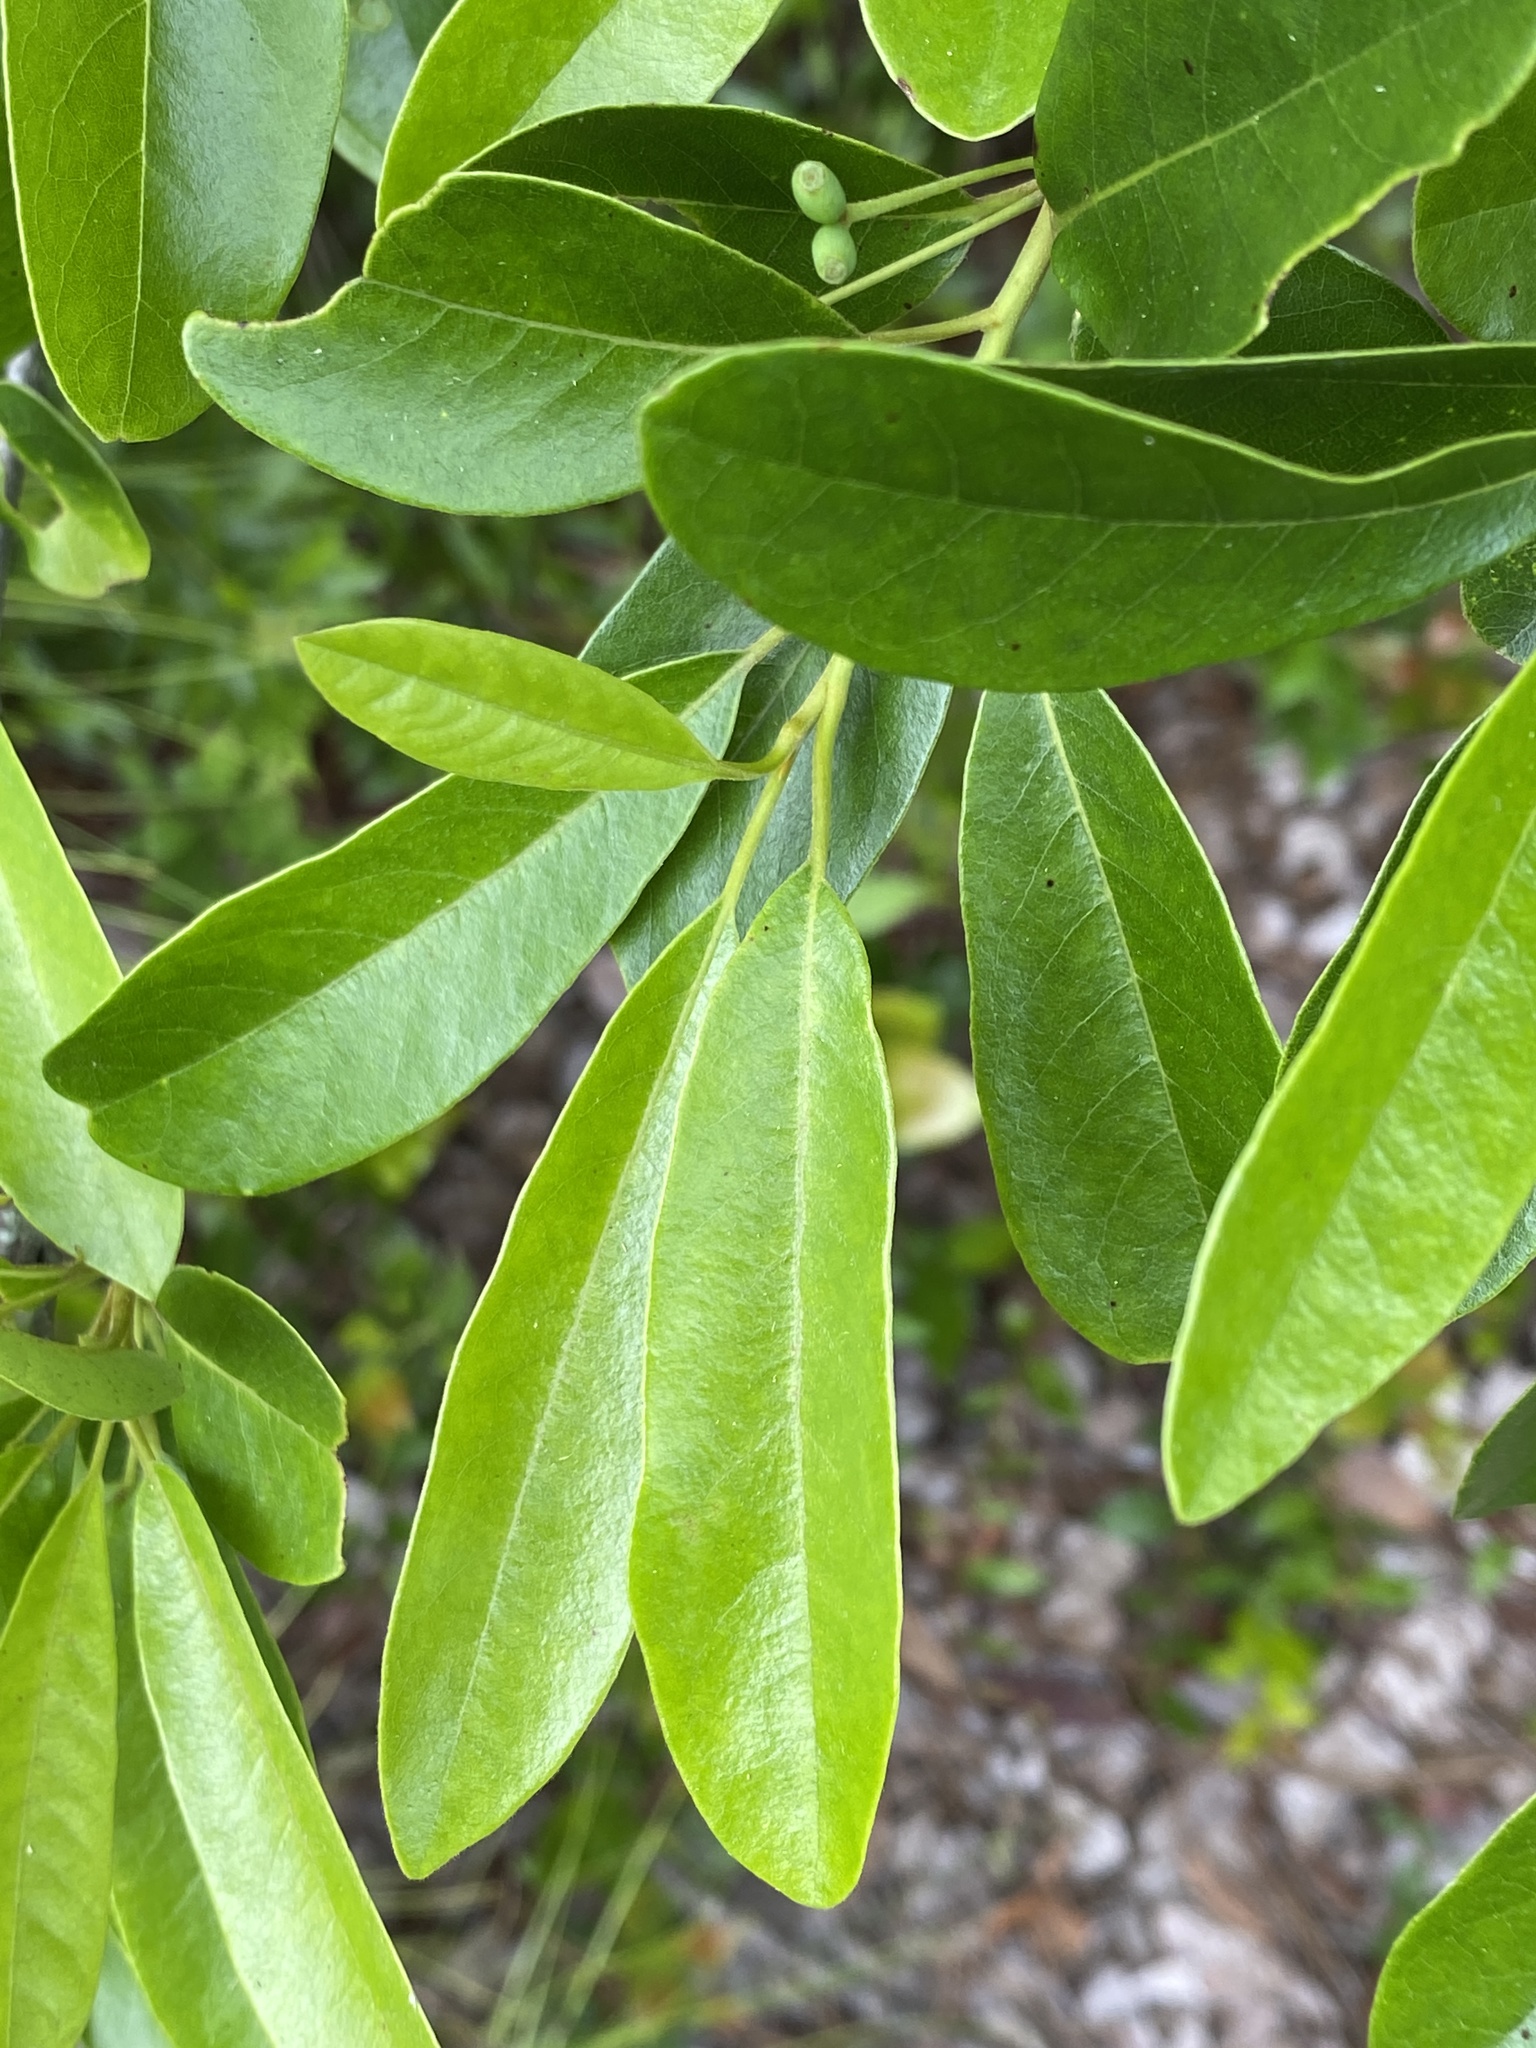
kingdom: Plantae
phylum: Tracheophyta
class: Magnoliopsida
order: Cornales
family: Nyssaceae
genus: Nyssa
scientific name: Nyssa biflora
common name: Swamp blackgum
